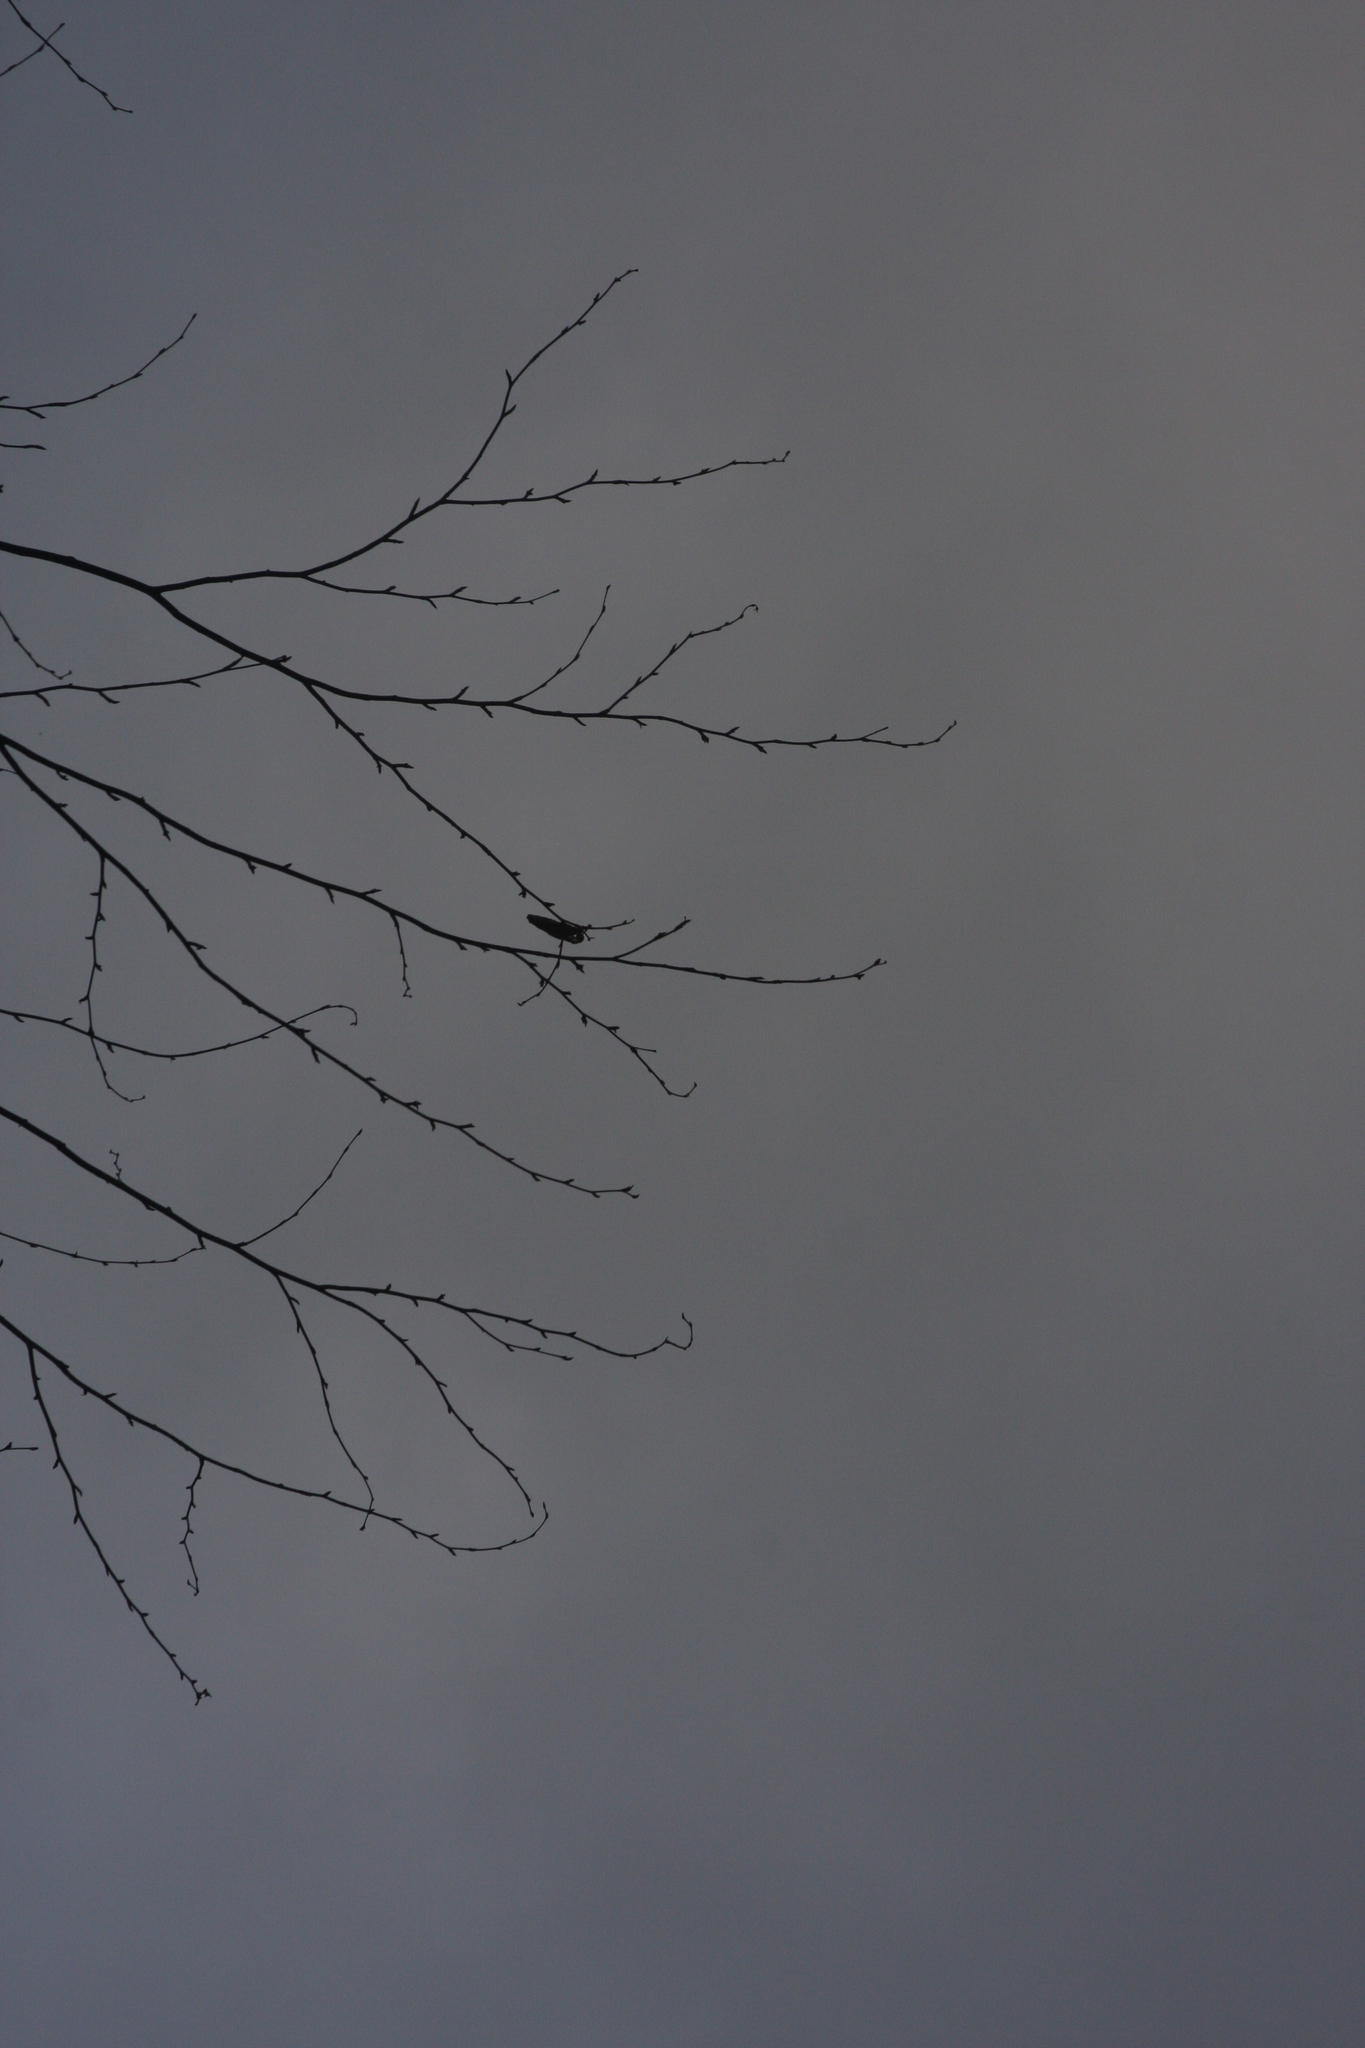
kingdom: Plantae
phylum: Tracheophyta
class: Magnoliopsida
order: Fagales
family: Betulaceae
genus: Betula
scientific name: Betula alleghaniensis
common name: Yellow birch
